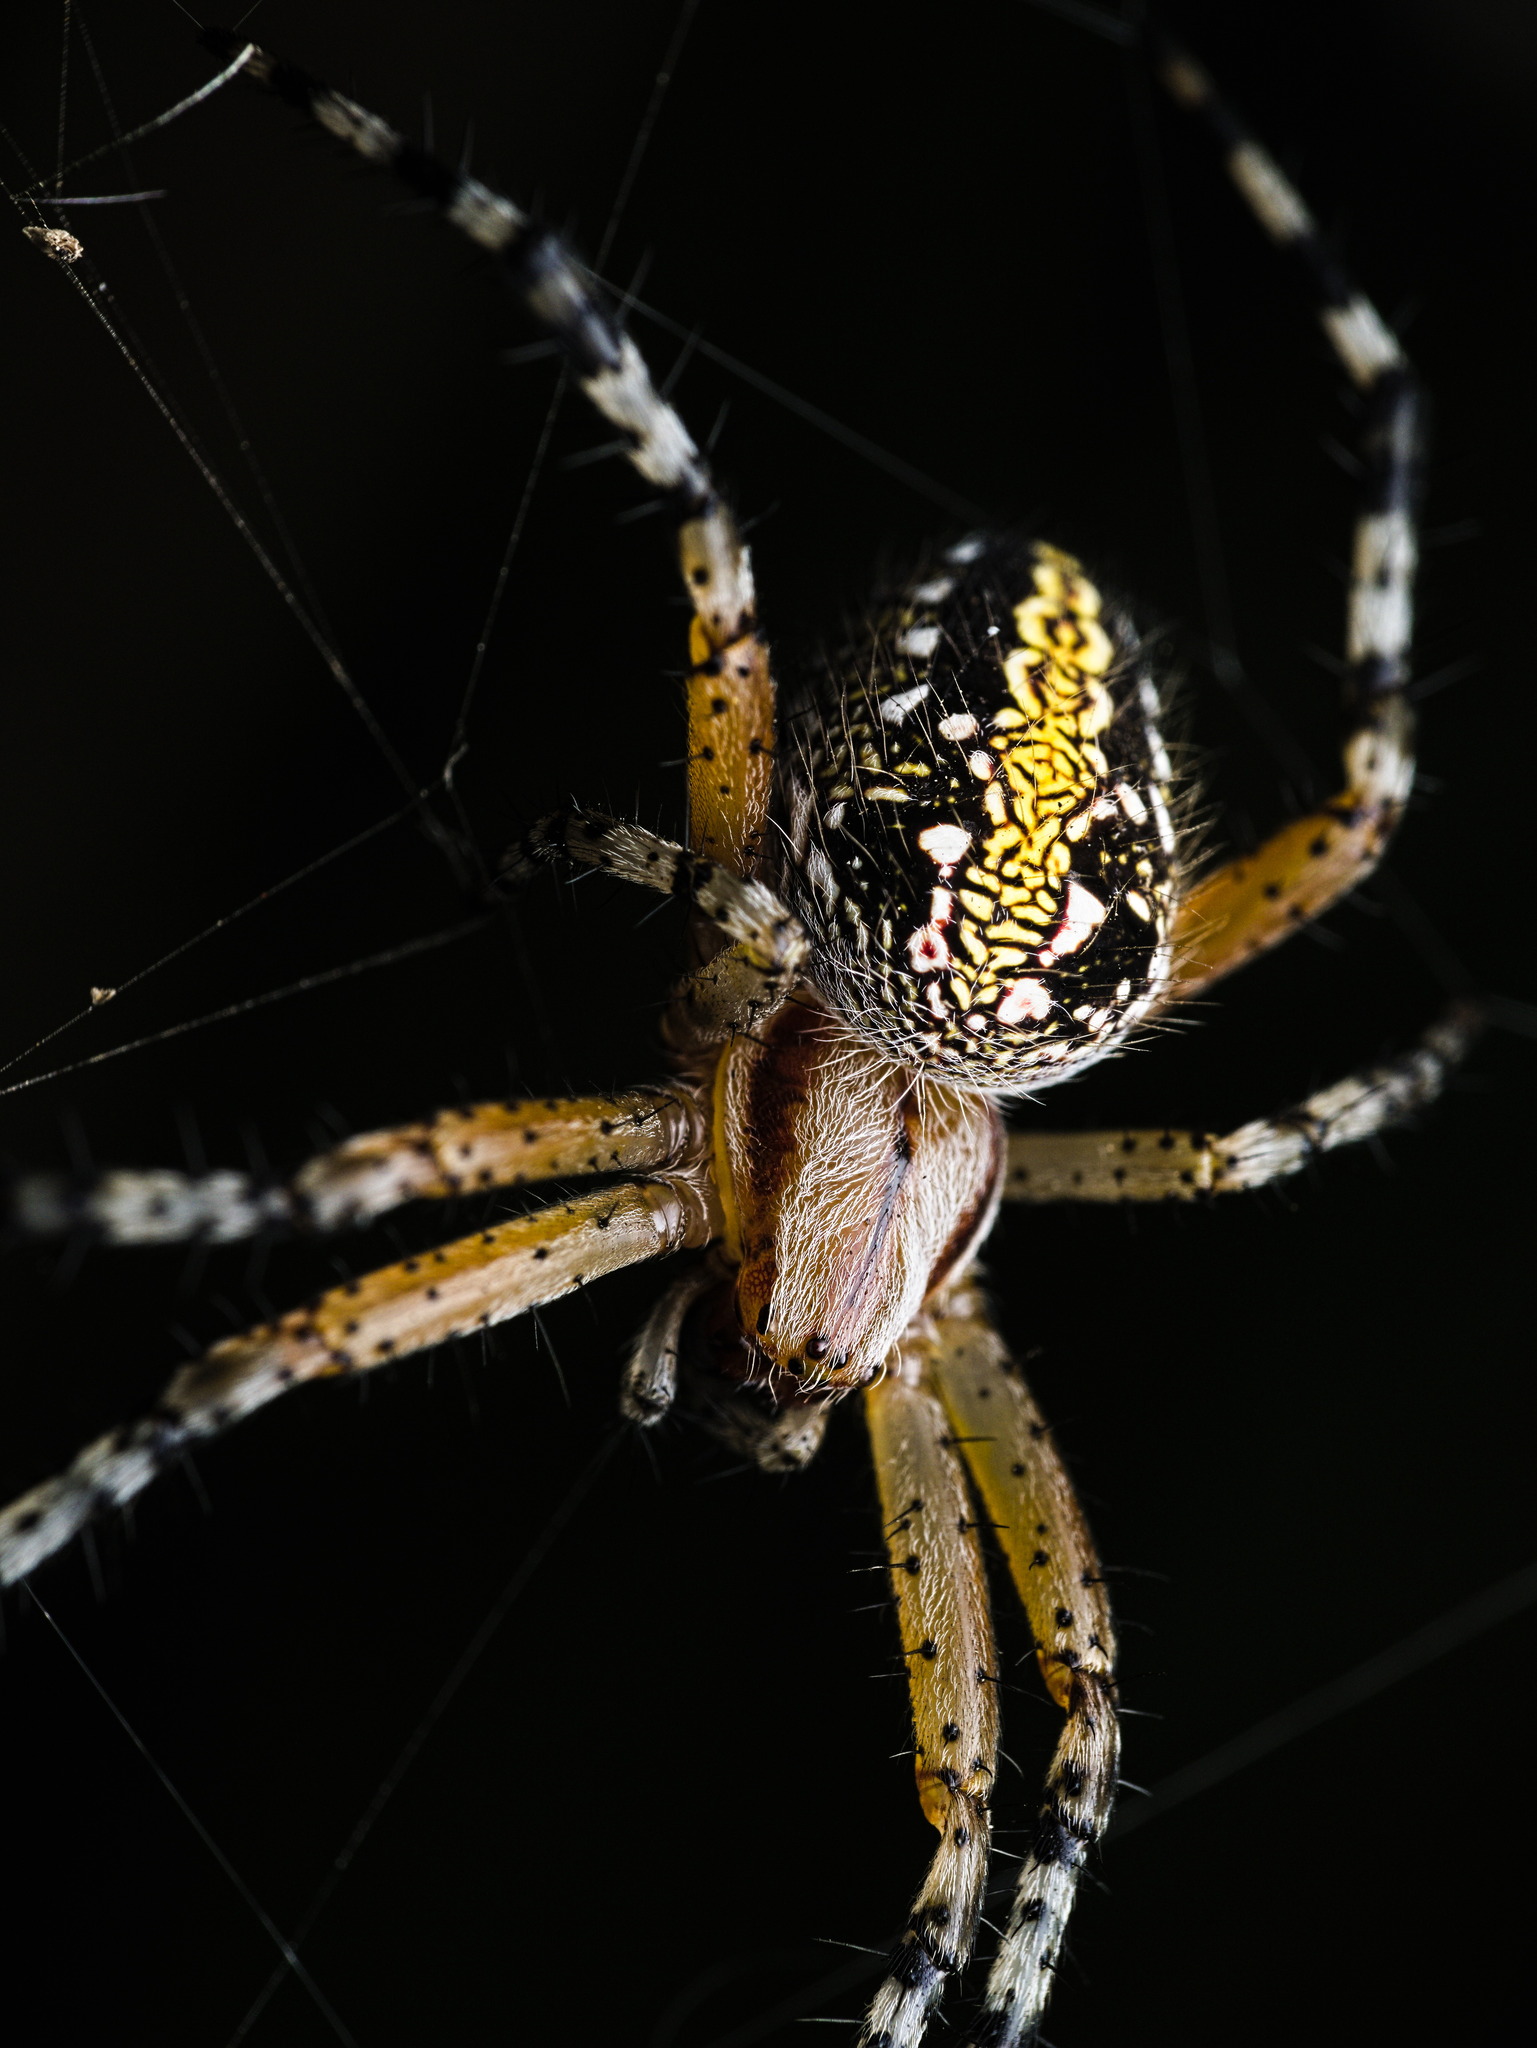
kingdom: Animalia
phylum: Arthropoda
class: Arachnida
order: Araneae
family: Araneidae
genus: Neoscona
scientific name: Neoscona oaxacensis
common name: Orb weavers
